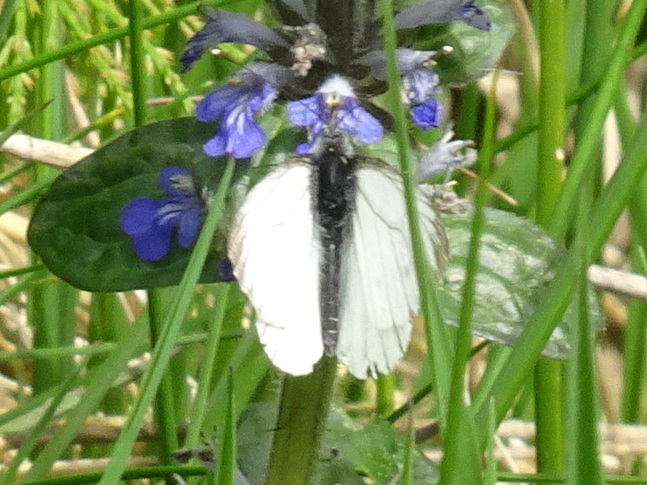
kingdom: Animalia
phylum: Arthropoda
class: Insecta
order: Lepidoptera
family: Pieridae
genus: Pieris
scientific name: Pieris napi
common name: Green-veined white
